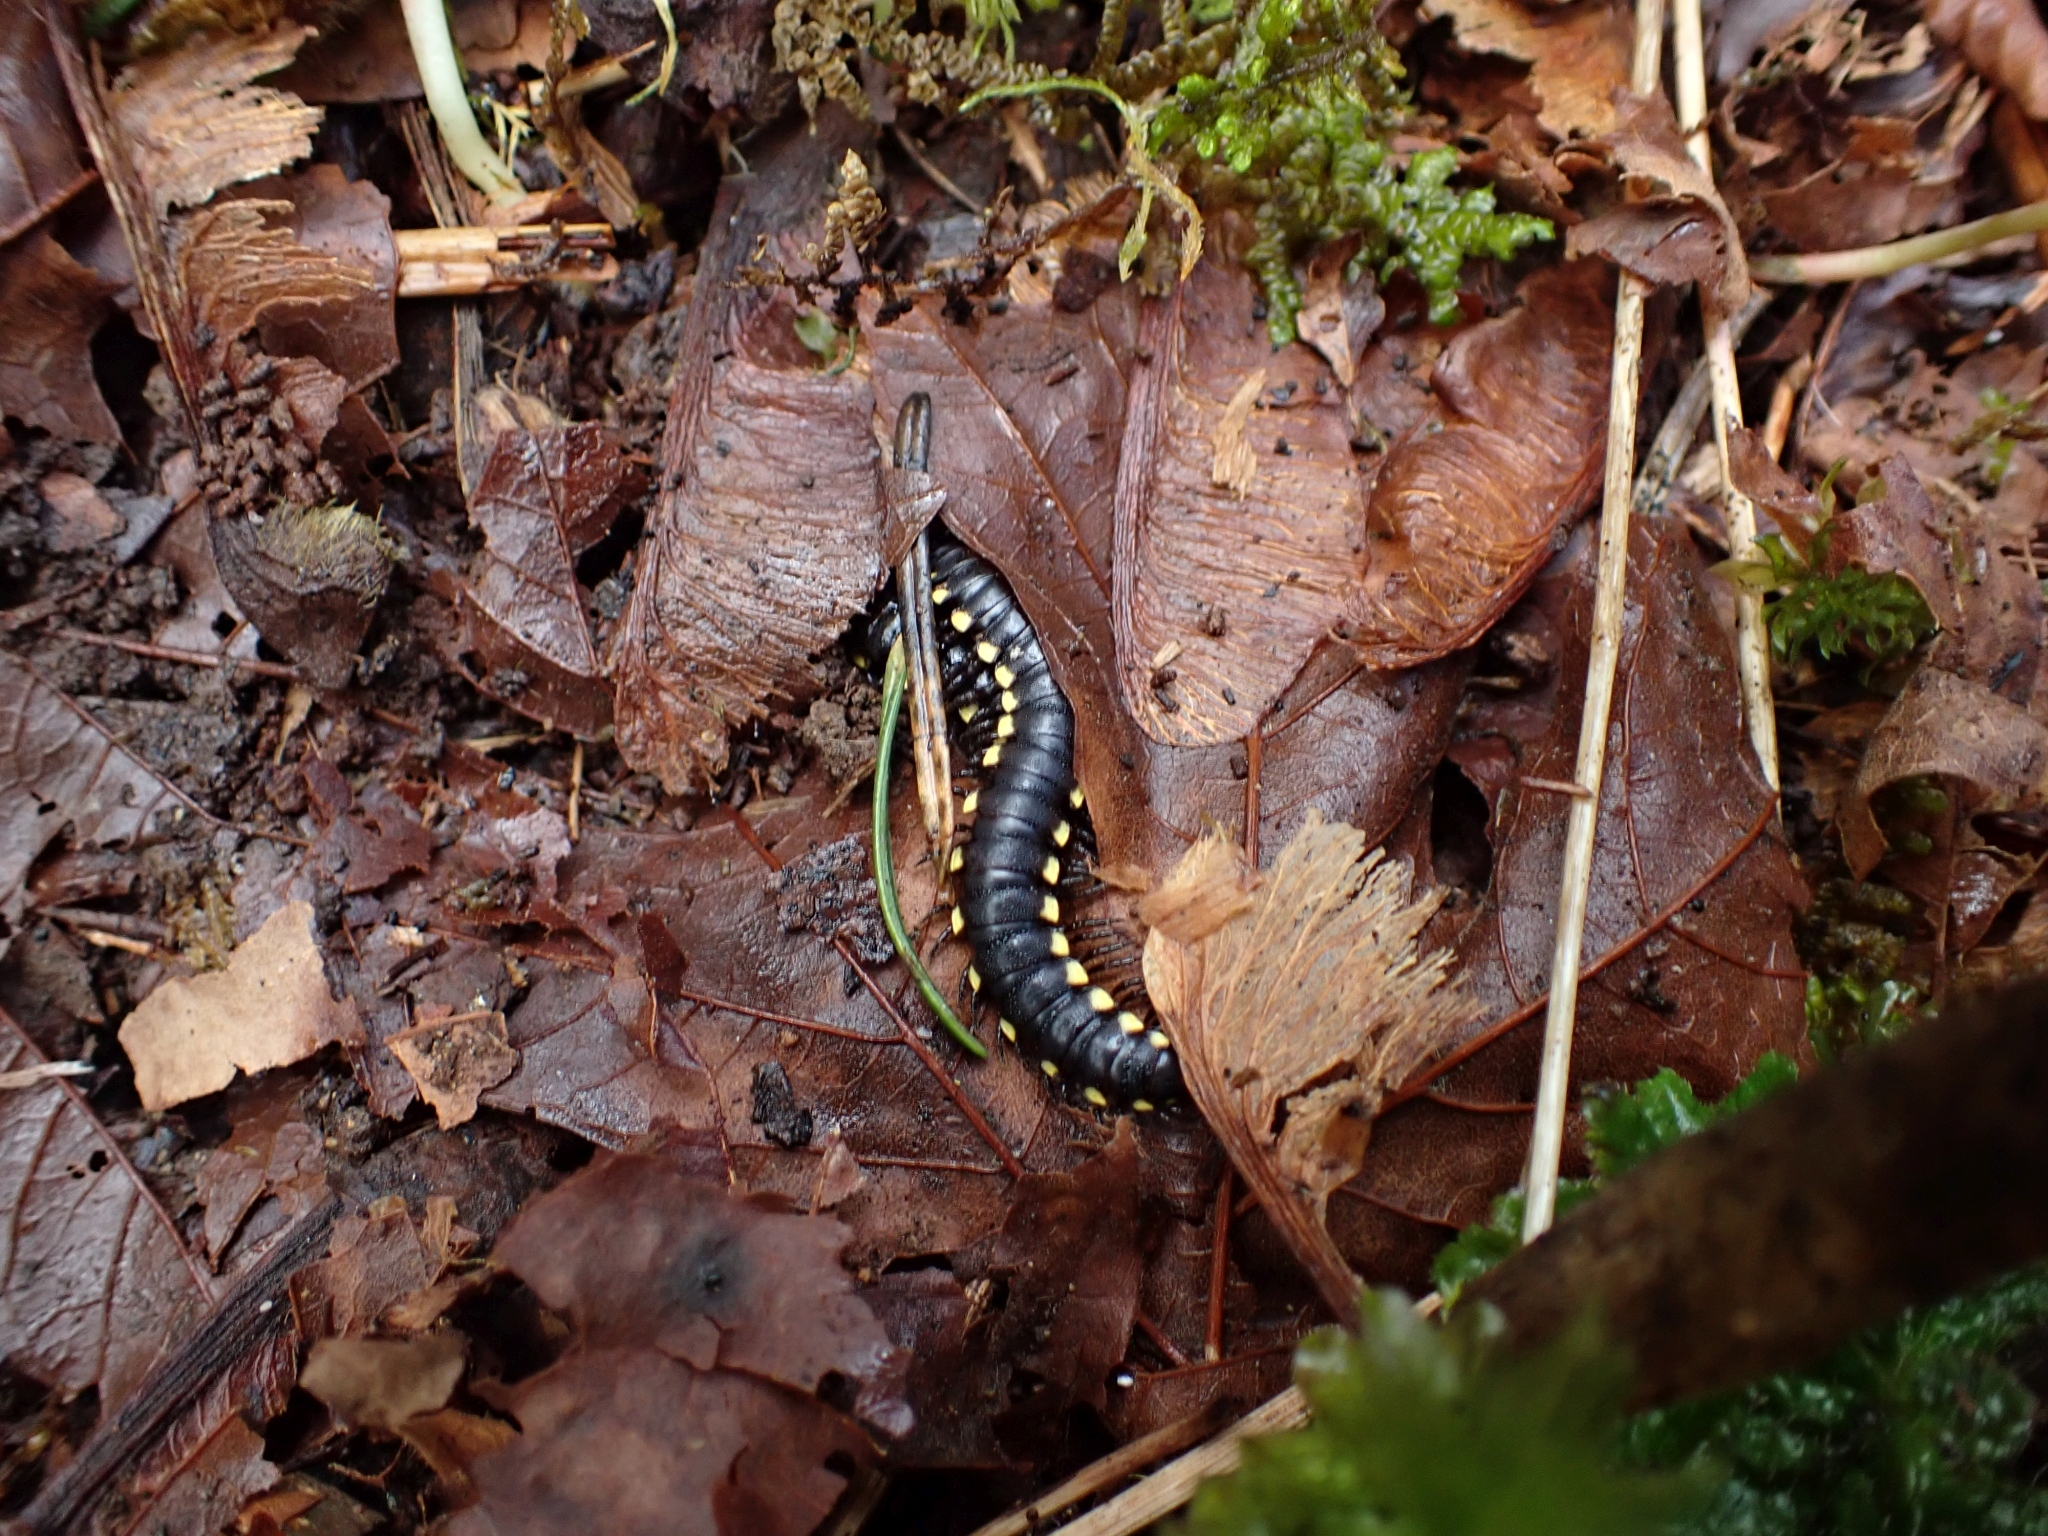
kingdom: Animalia
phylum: Arthropoda
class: Diplopoda
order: Polydesmida
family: Xystodesmidae
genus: Harpaphe
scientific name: Harpaphe haydeniana
